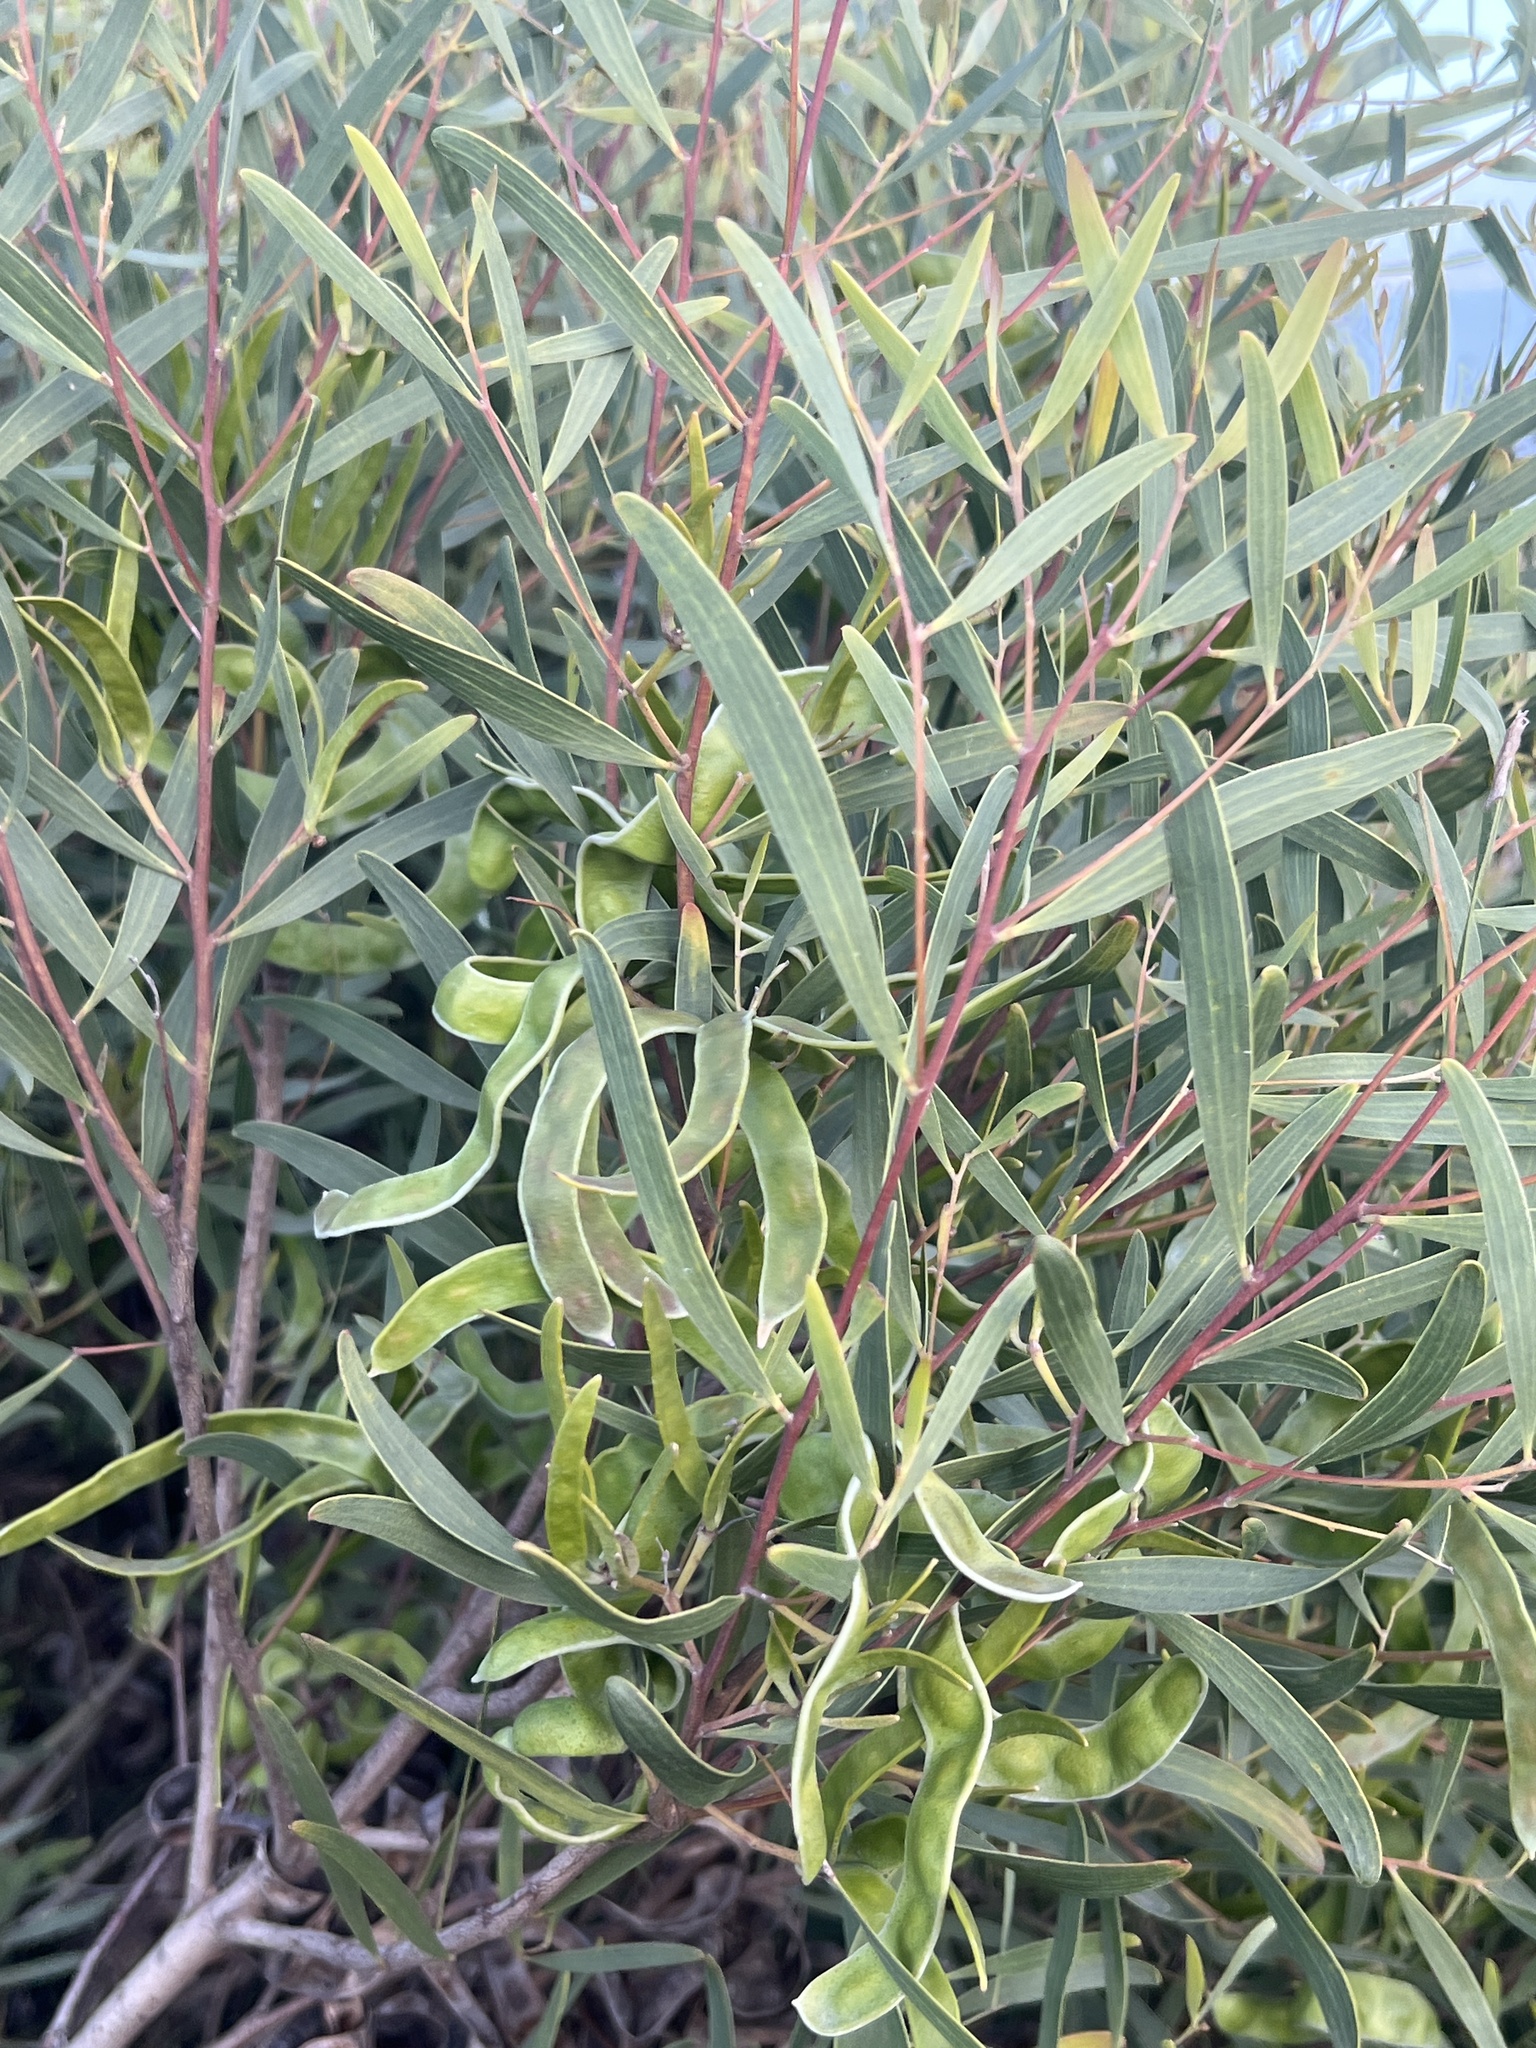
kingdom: Plantae
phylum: Tracheophyta
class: Magnoliopsida
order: Fabales
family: Fabaceae
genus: Acacia
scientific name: Acacia cyclops
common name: Coastal wattle
